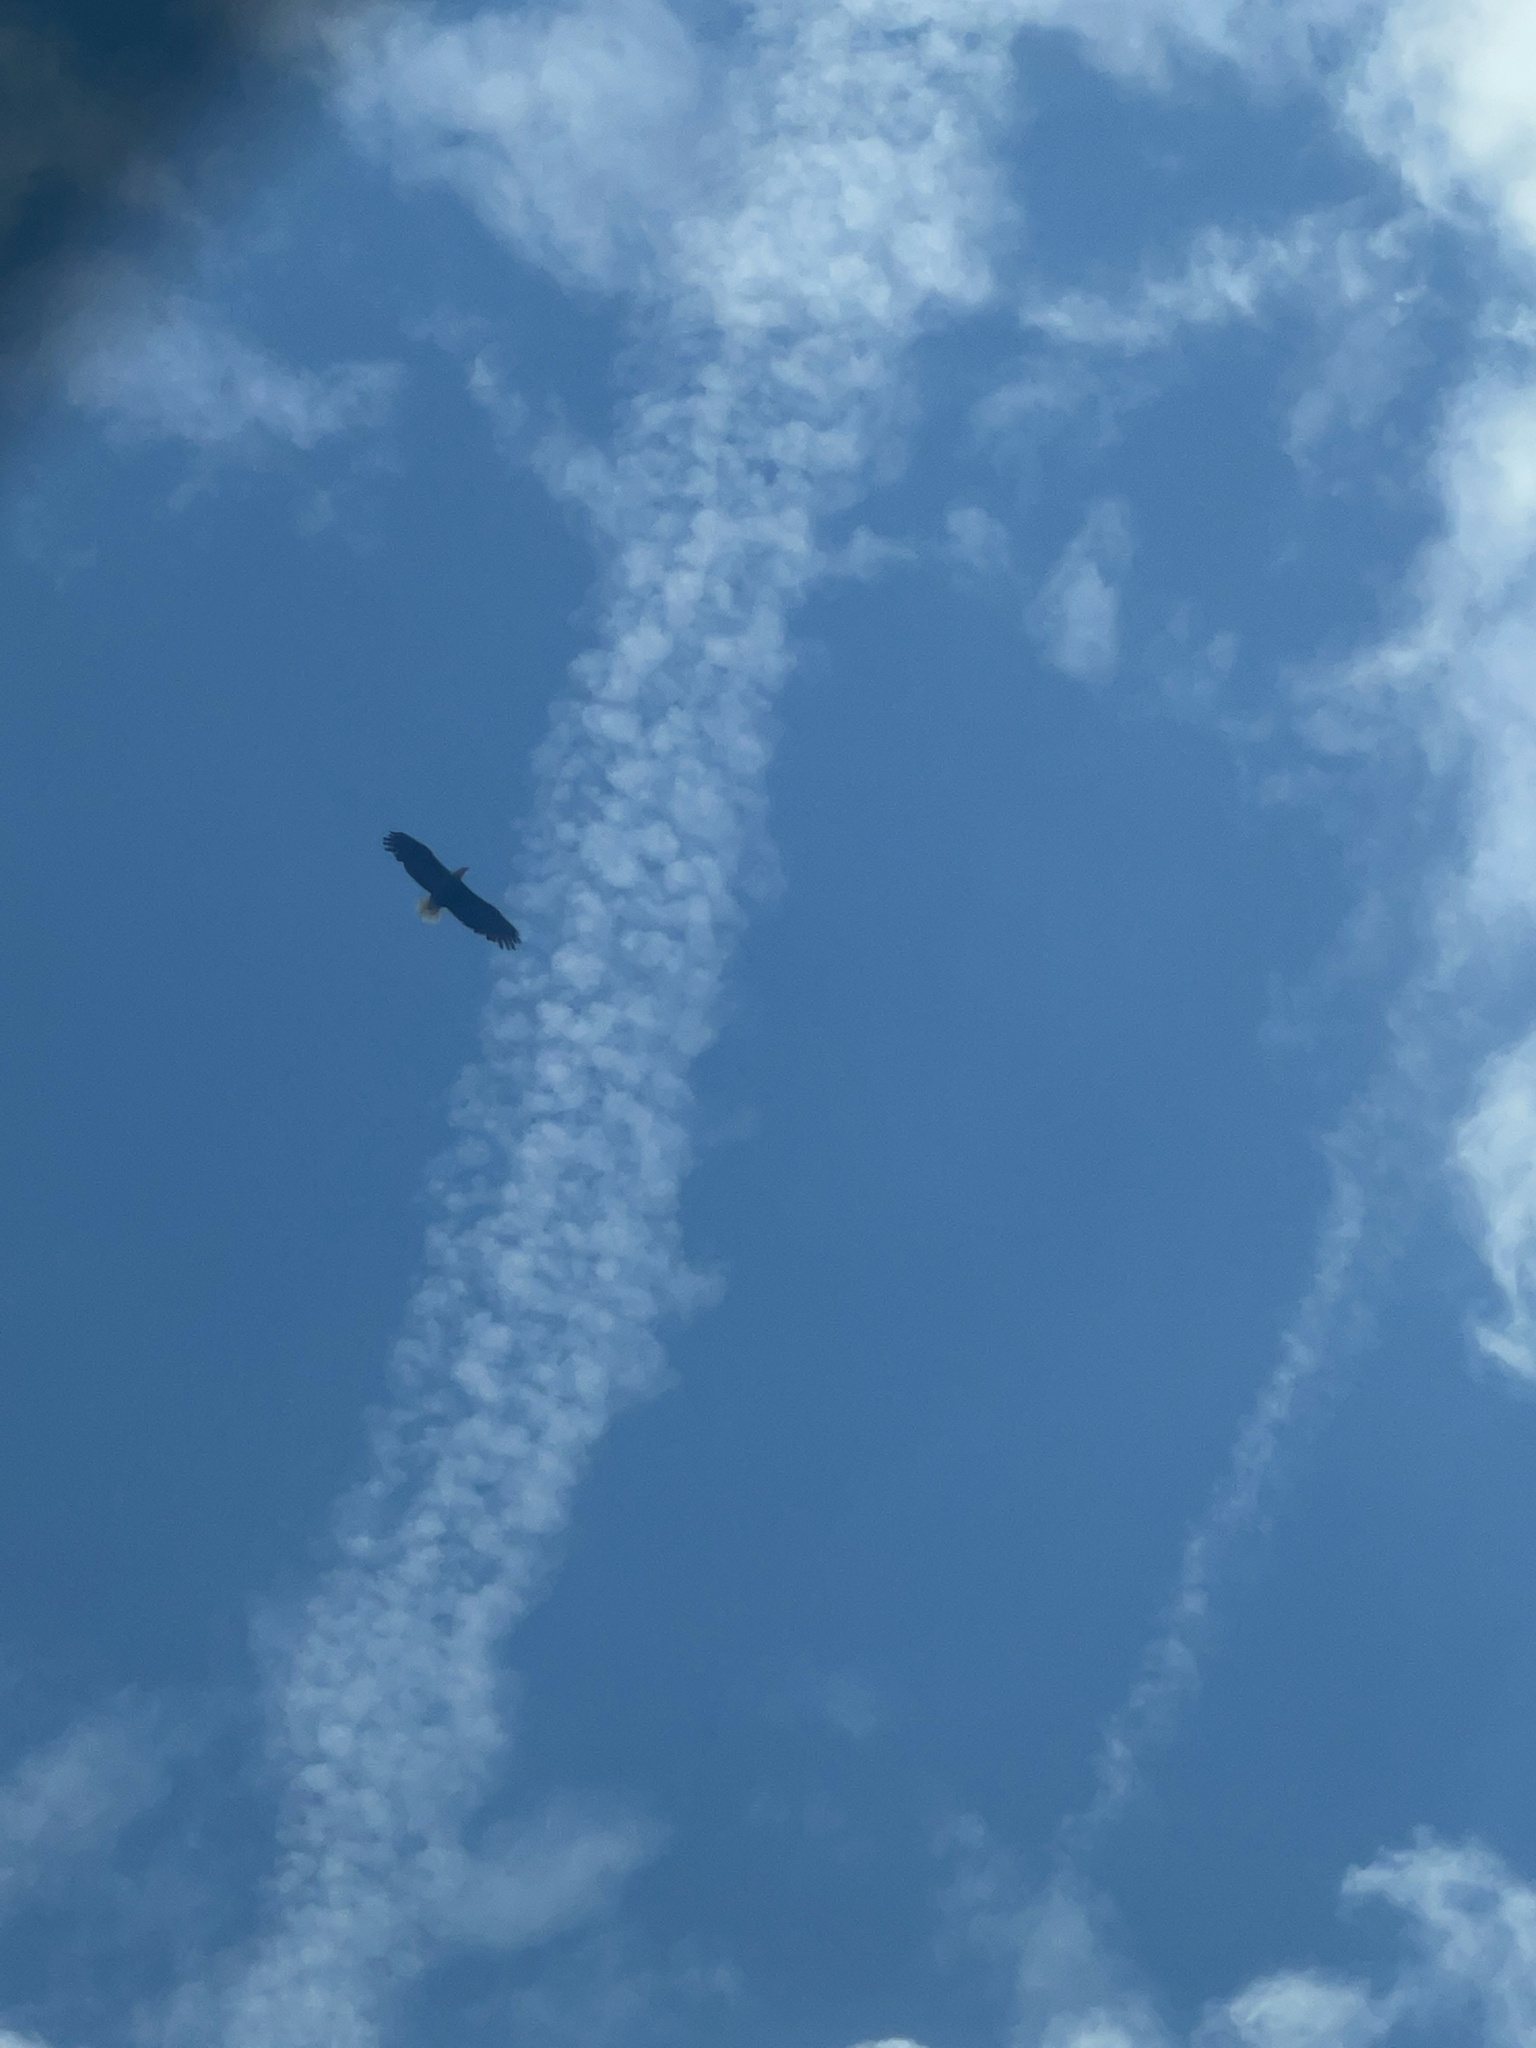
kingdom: Animalia
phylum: Chordata
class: Aves
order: Accipitriformes
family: Accipitridae
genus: Haliaeetus
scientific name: Haliaeetus leucocephalus
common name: Bald eagle
